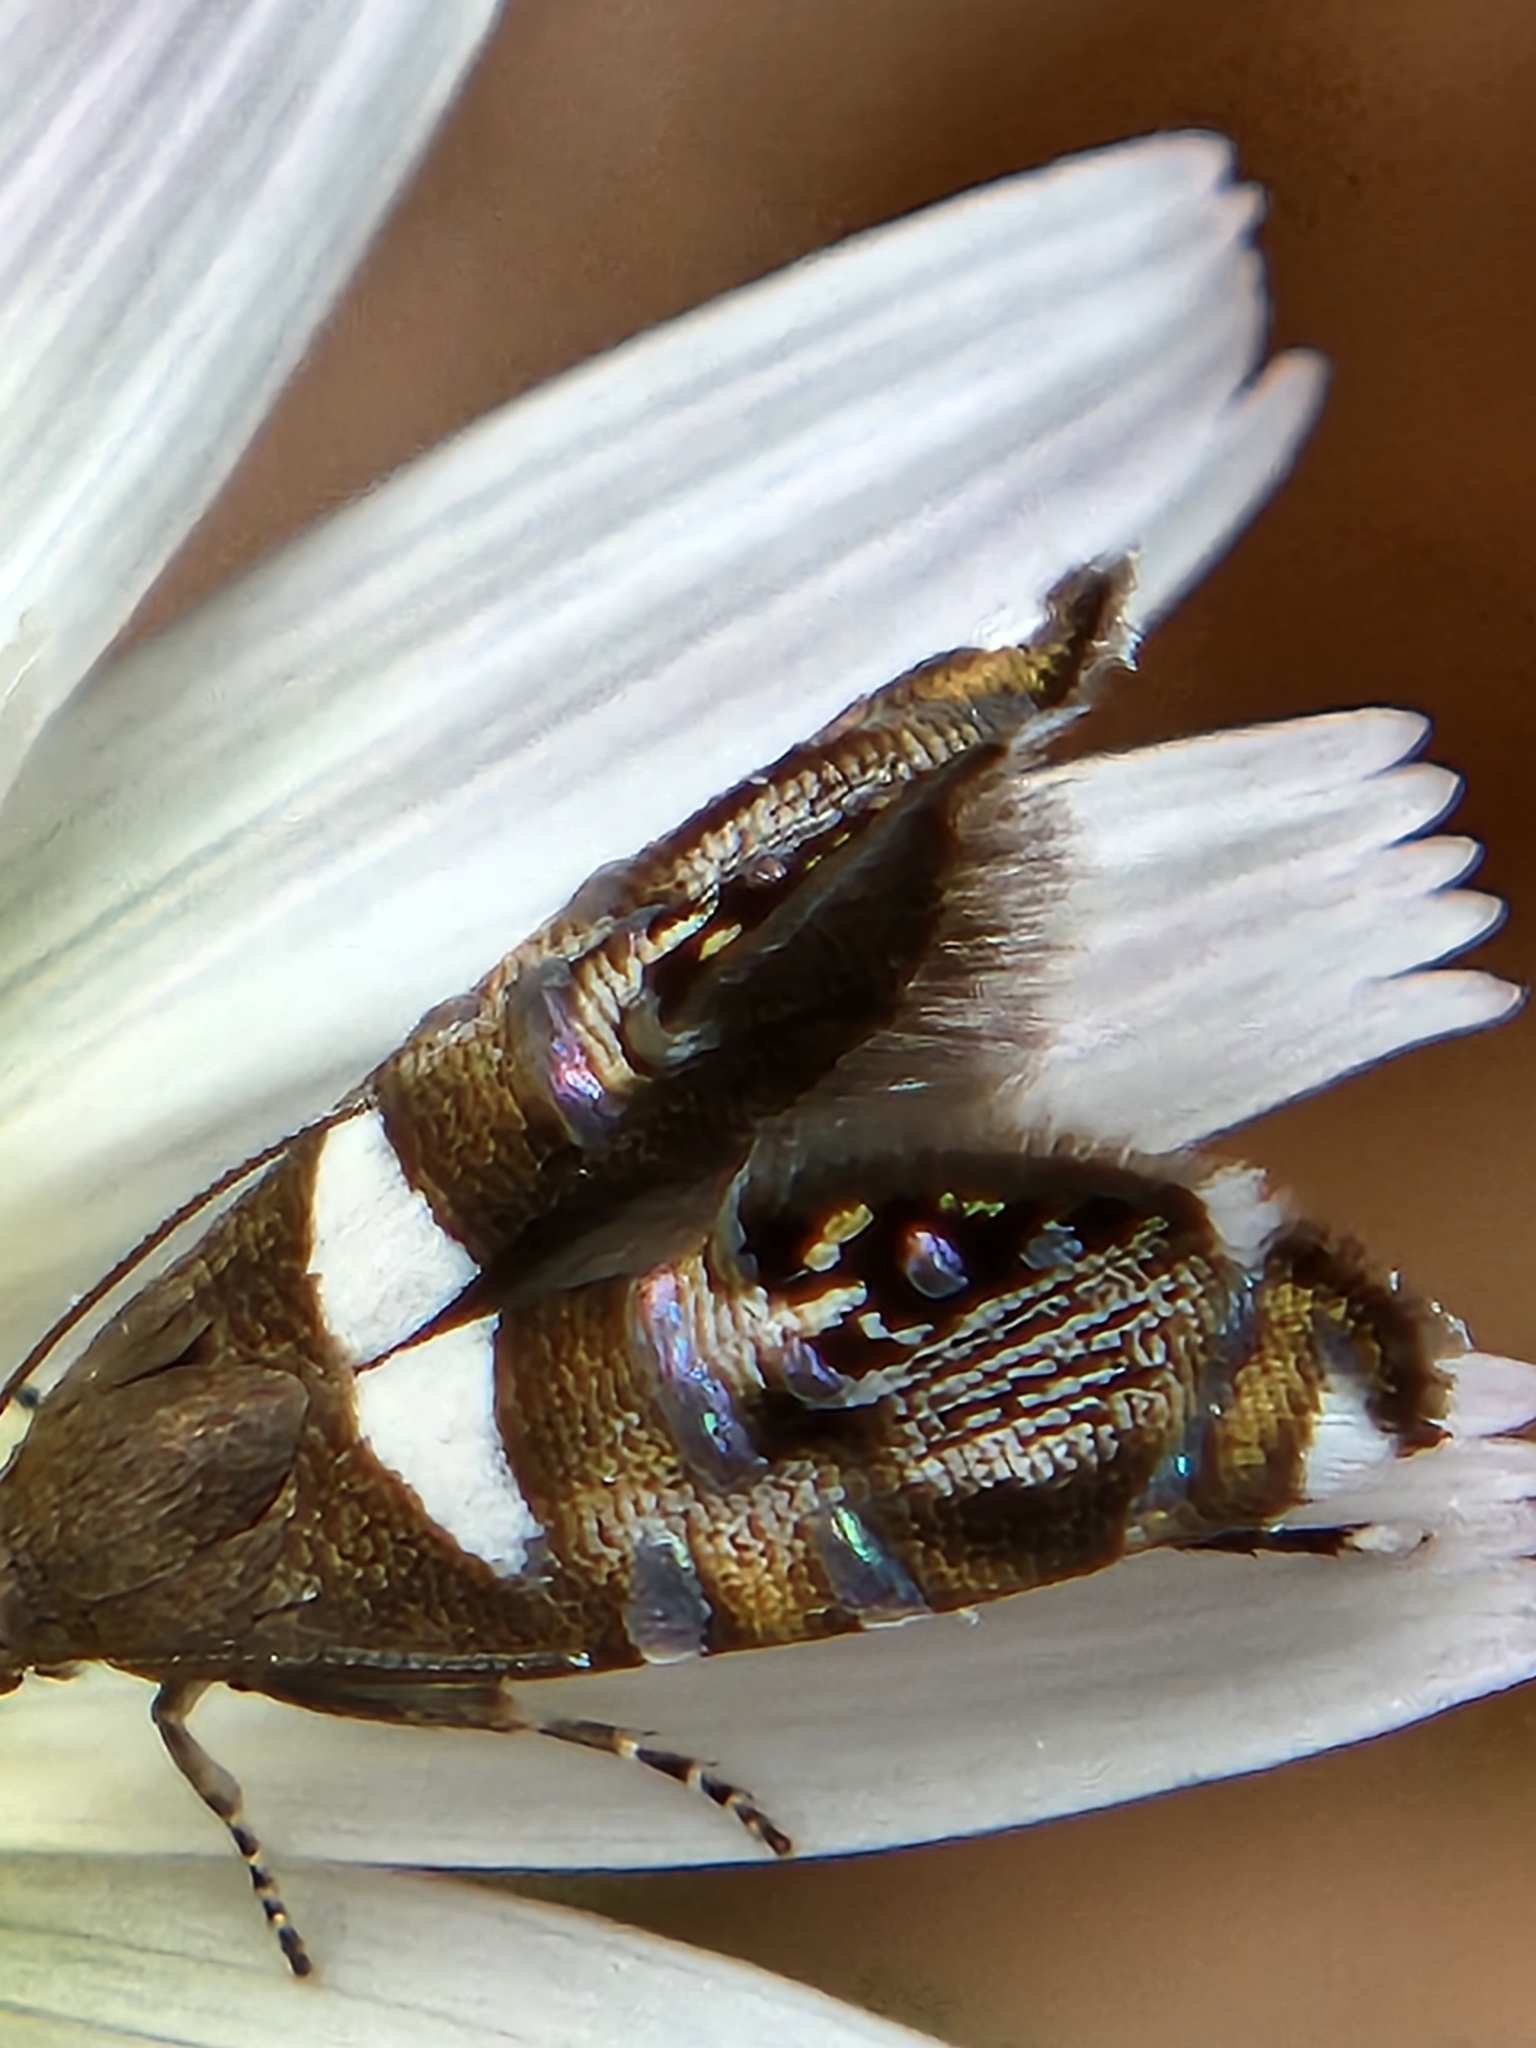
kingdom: Animalia
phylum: Arthropoda
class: Insecta
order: Lepidoptera
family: Glyphipterigidae
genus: Glyphipterix
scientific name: Glyphipterix circumscriptella
